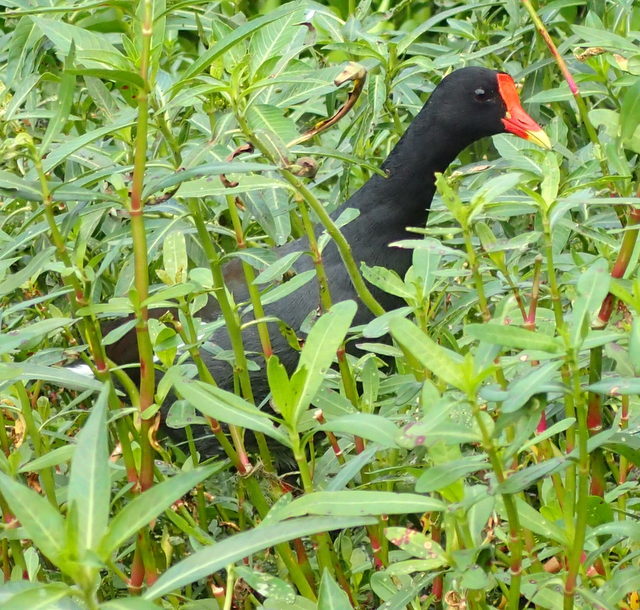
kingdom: Animalia
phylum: Chordata
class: Aves
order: Gruiformes
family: Rallidae
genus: Gallinula
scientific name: Gallinula chloropus
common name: Common moorhen
